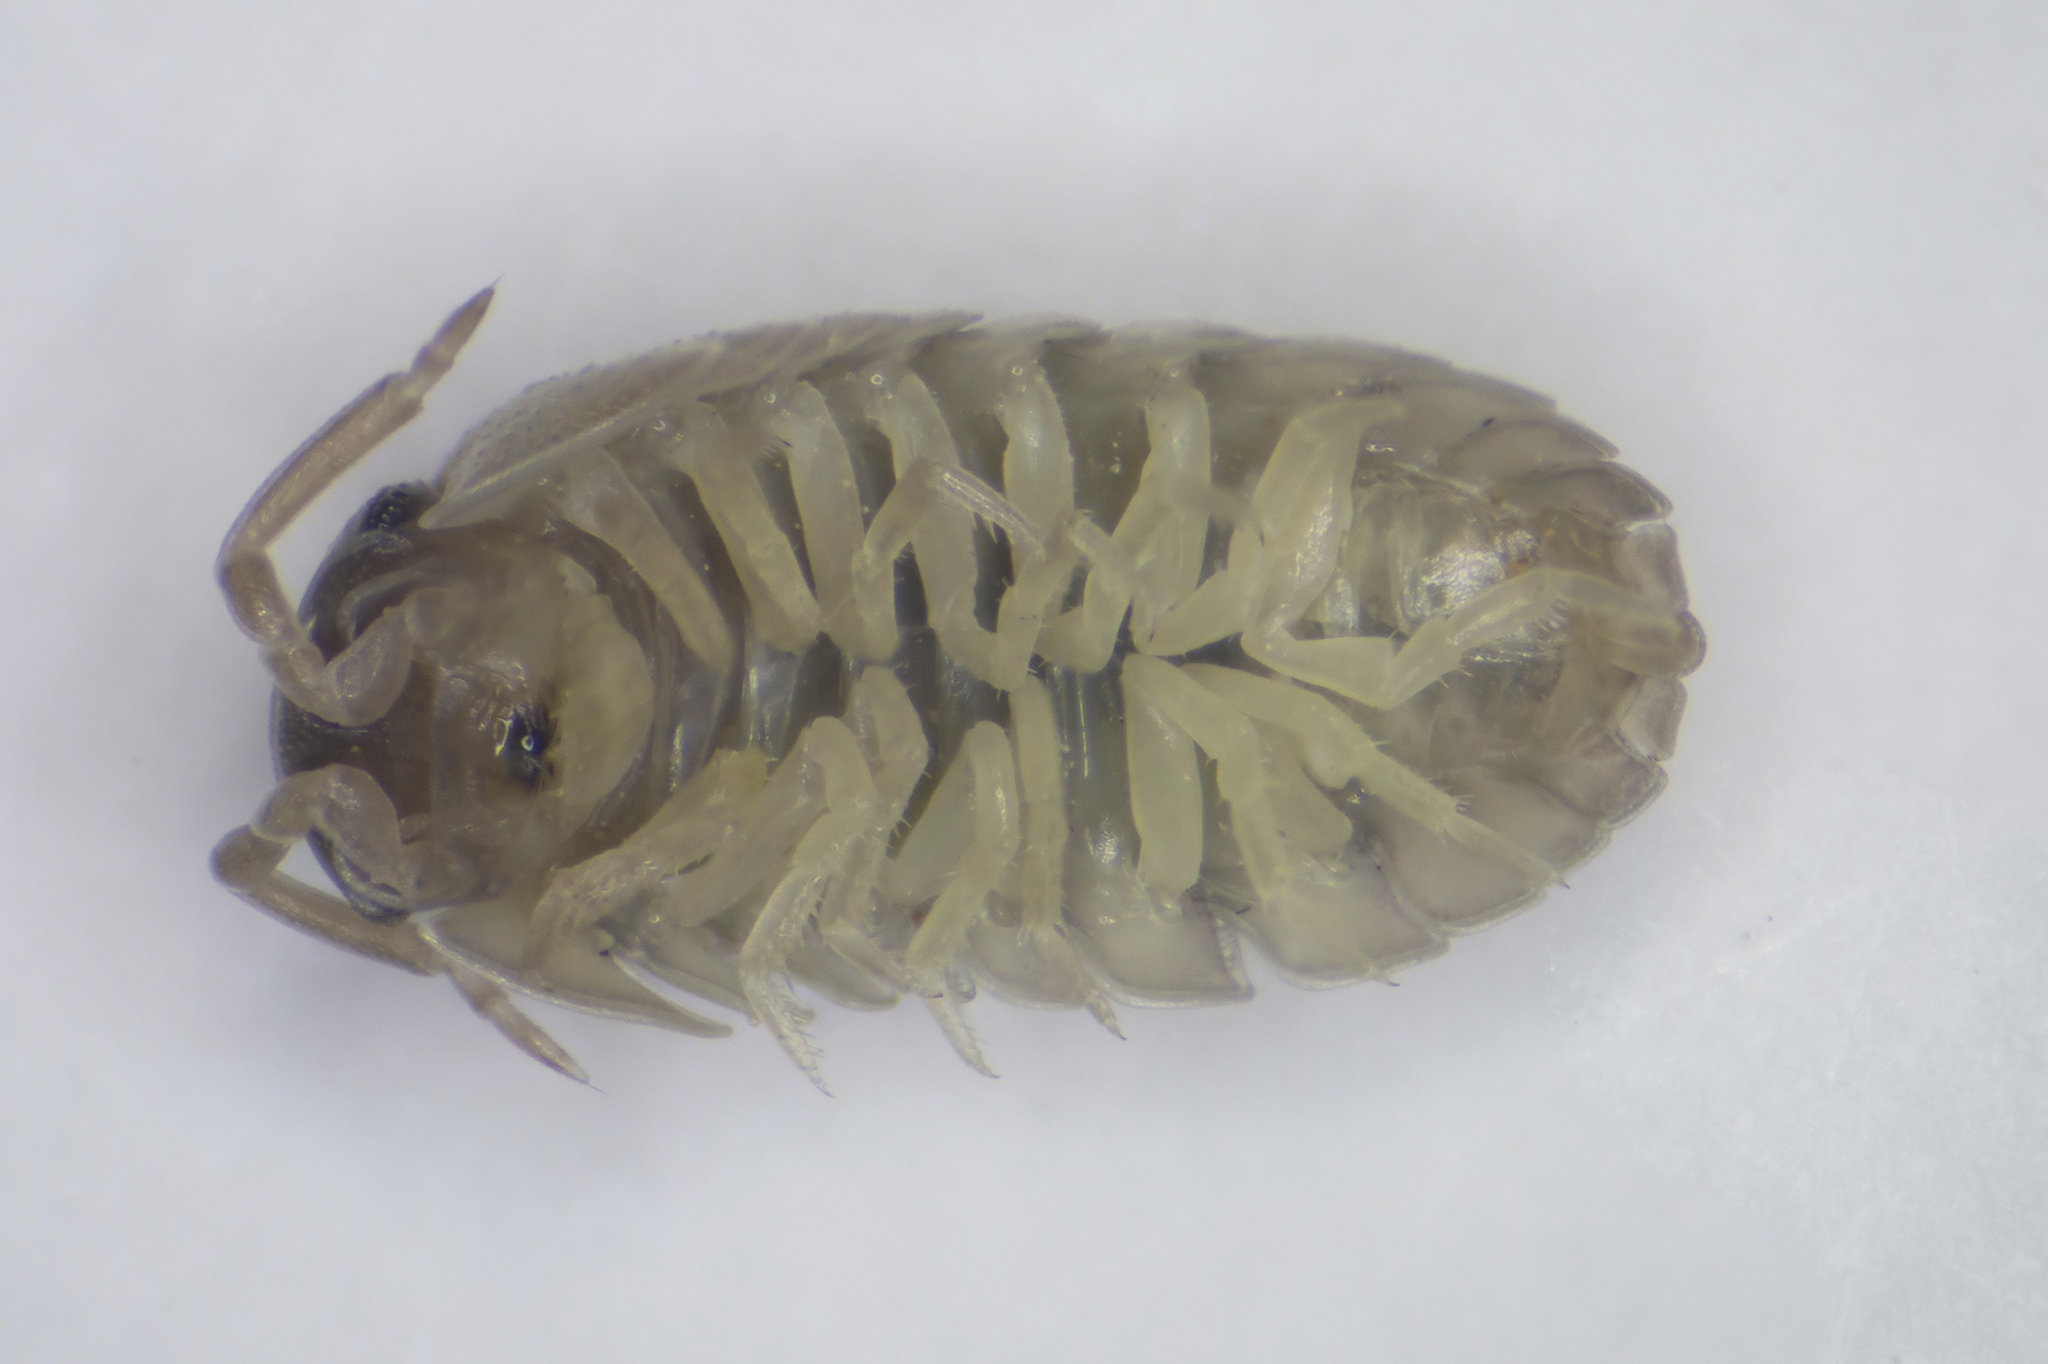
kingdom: Animalia
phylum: Arthropoda
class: Malacostraca
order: Isopoda
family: Armadillidiidae
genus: Armadillidium
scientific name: Armadillidium bicurvatum
